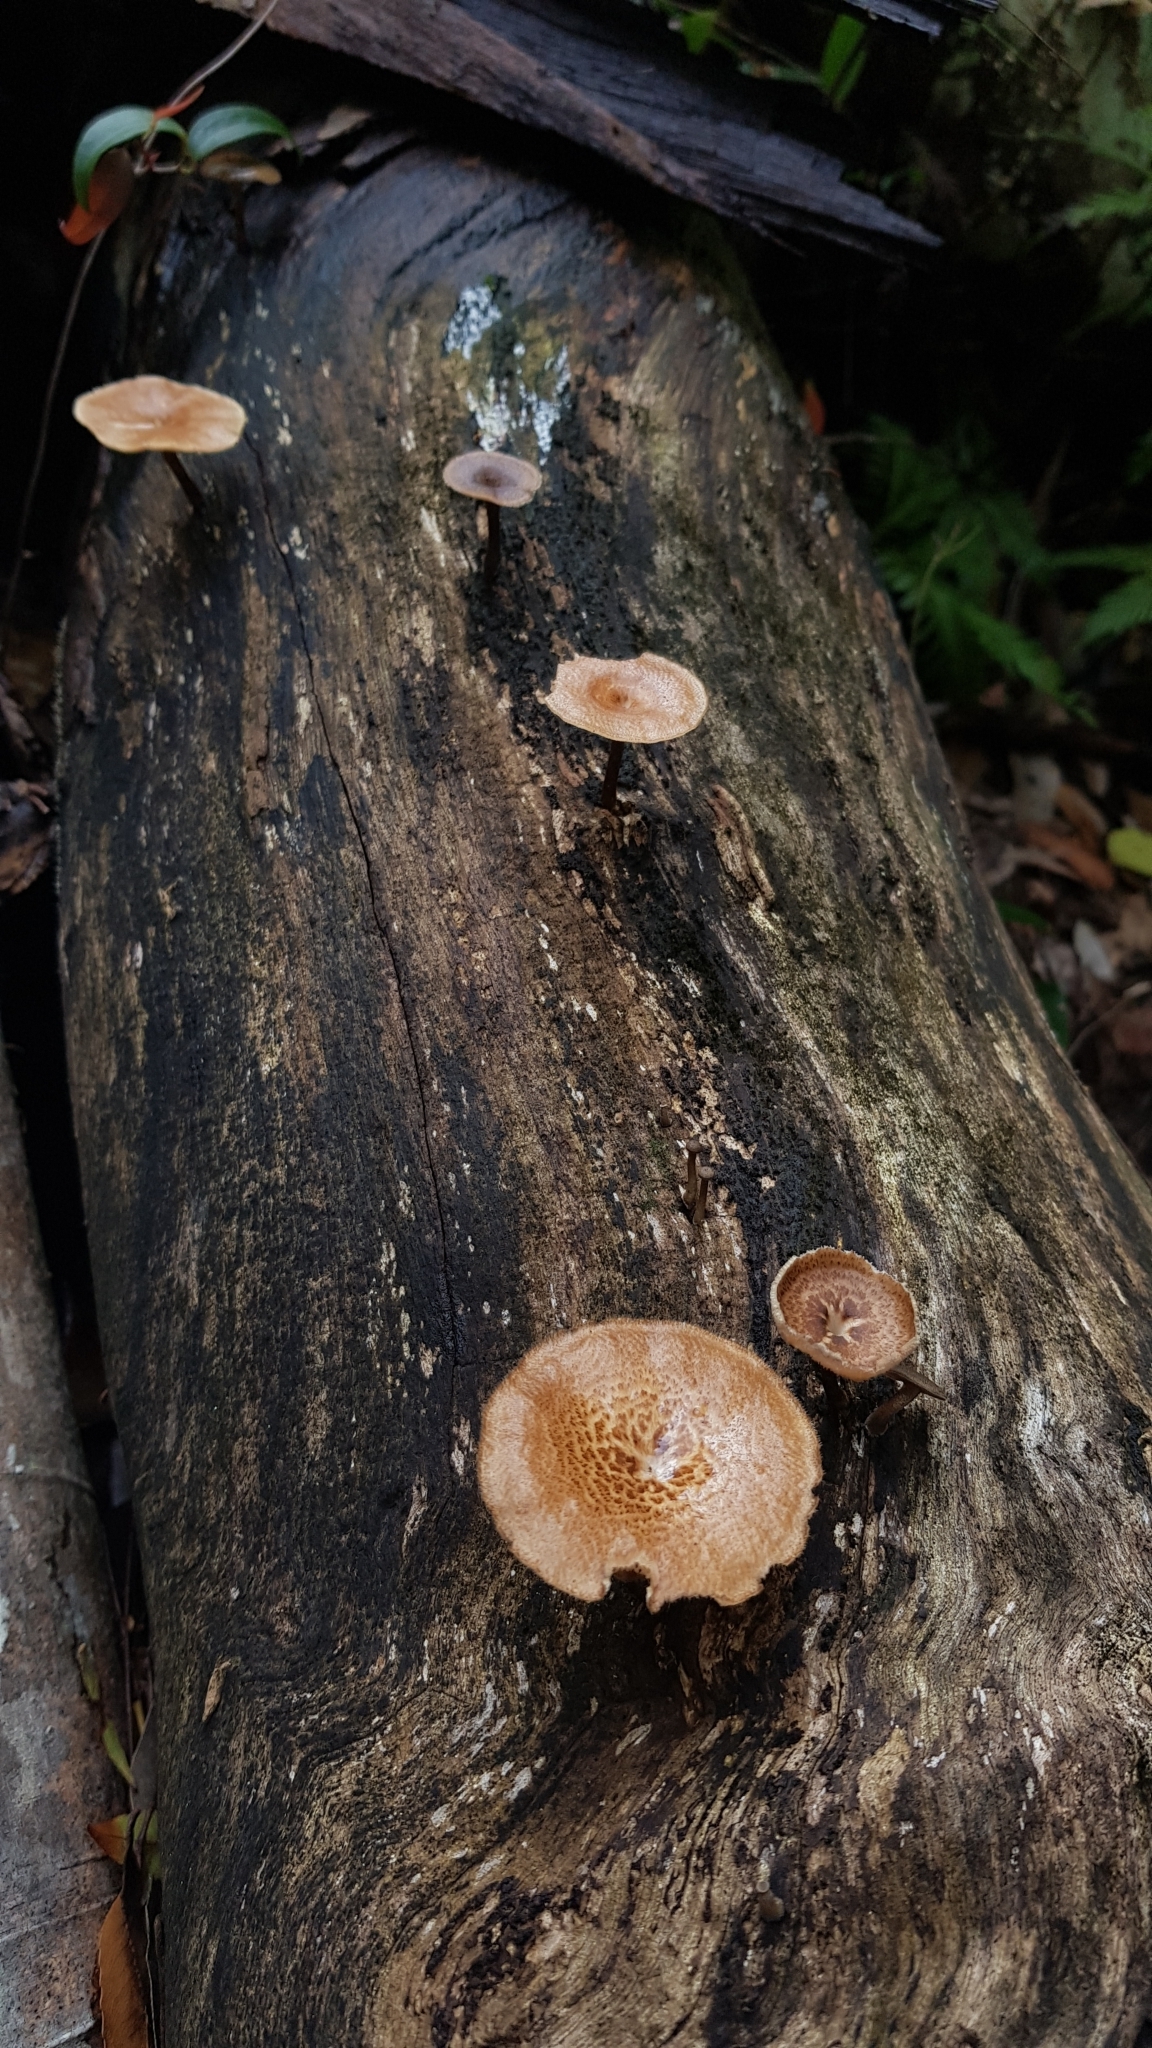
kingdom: Fungi
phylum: Basidiomycota
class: Agaricomycetes
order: Polyporales
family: Polyporaceae
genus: Lentinus
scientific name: Lentinus arcularius
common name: Spring polypore
